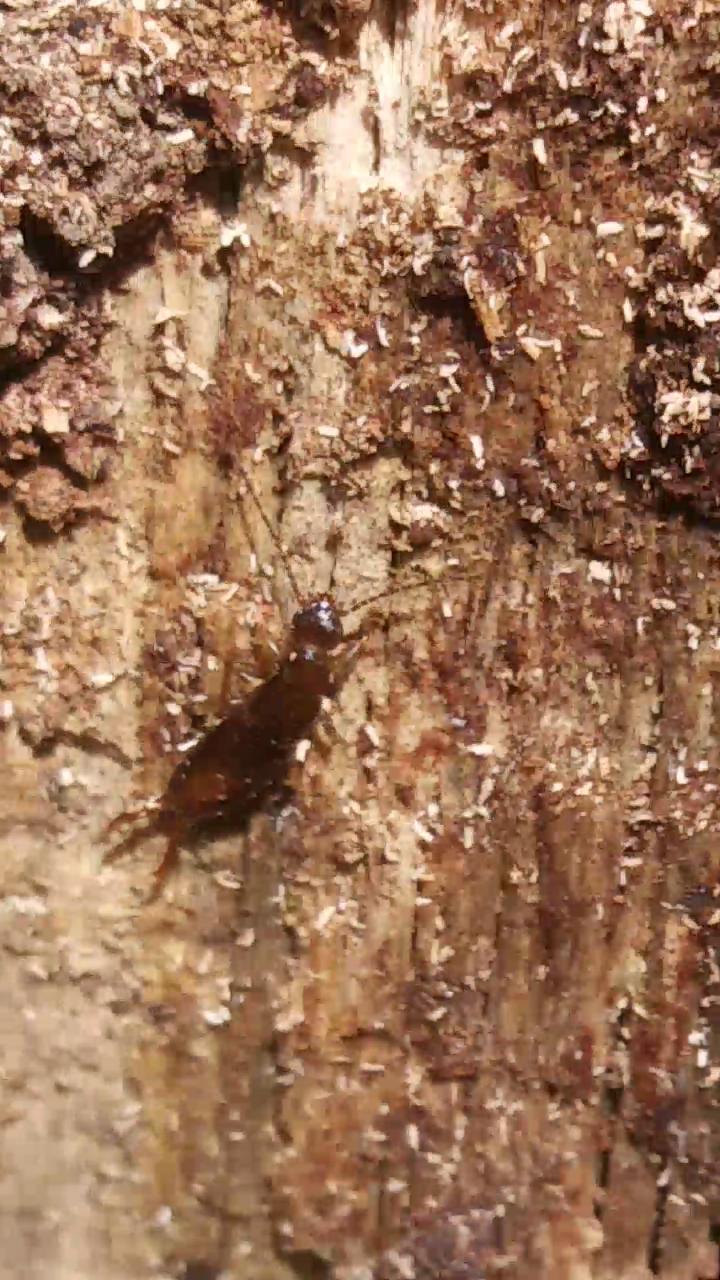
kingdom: Animalia
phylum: Arthropoda
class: Insecta
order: Dermaptera
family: Spongiphoridae
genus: Vostox
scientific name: Vostox brunneipennis
